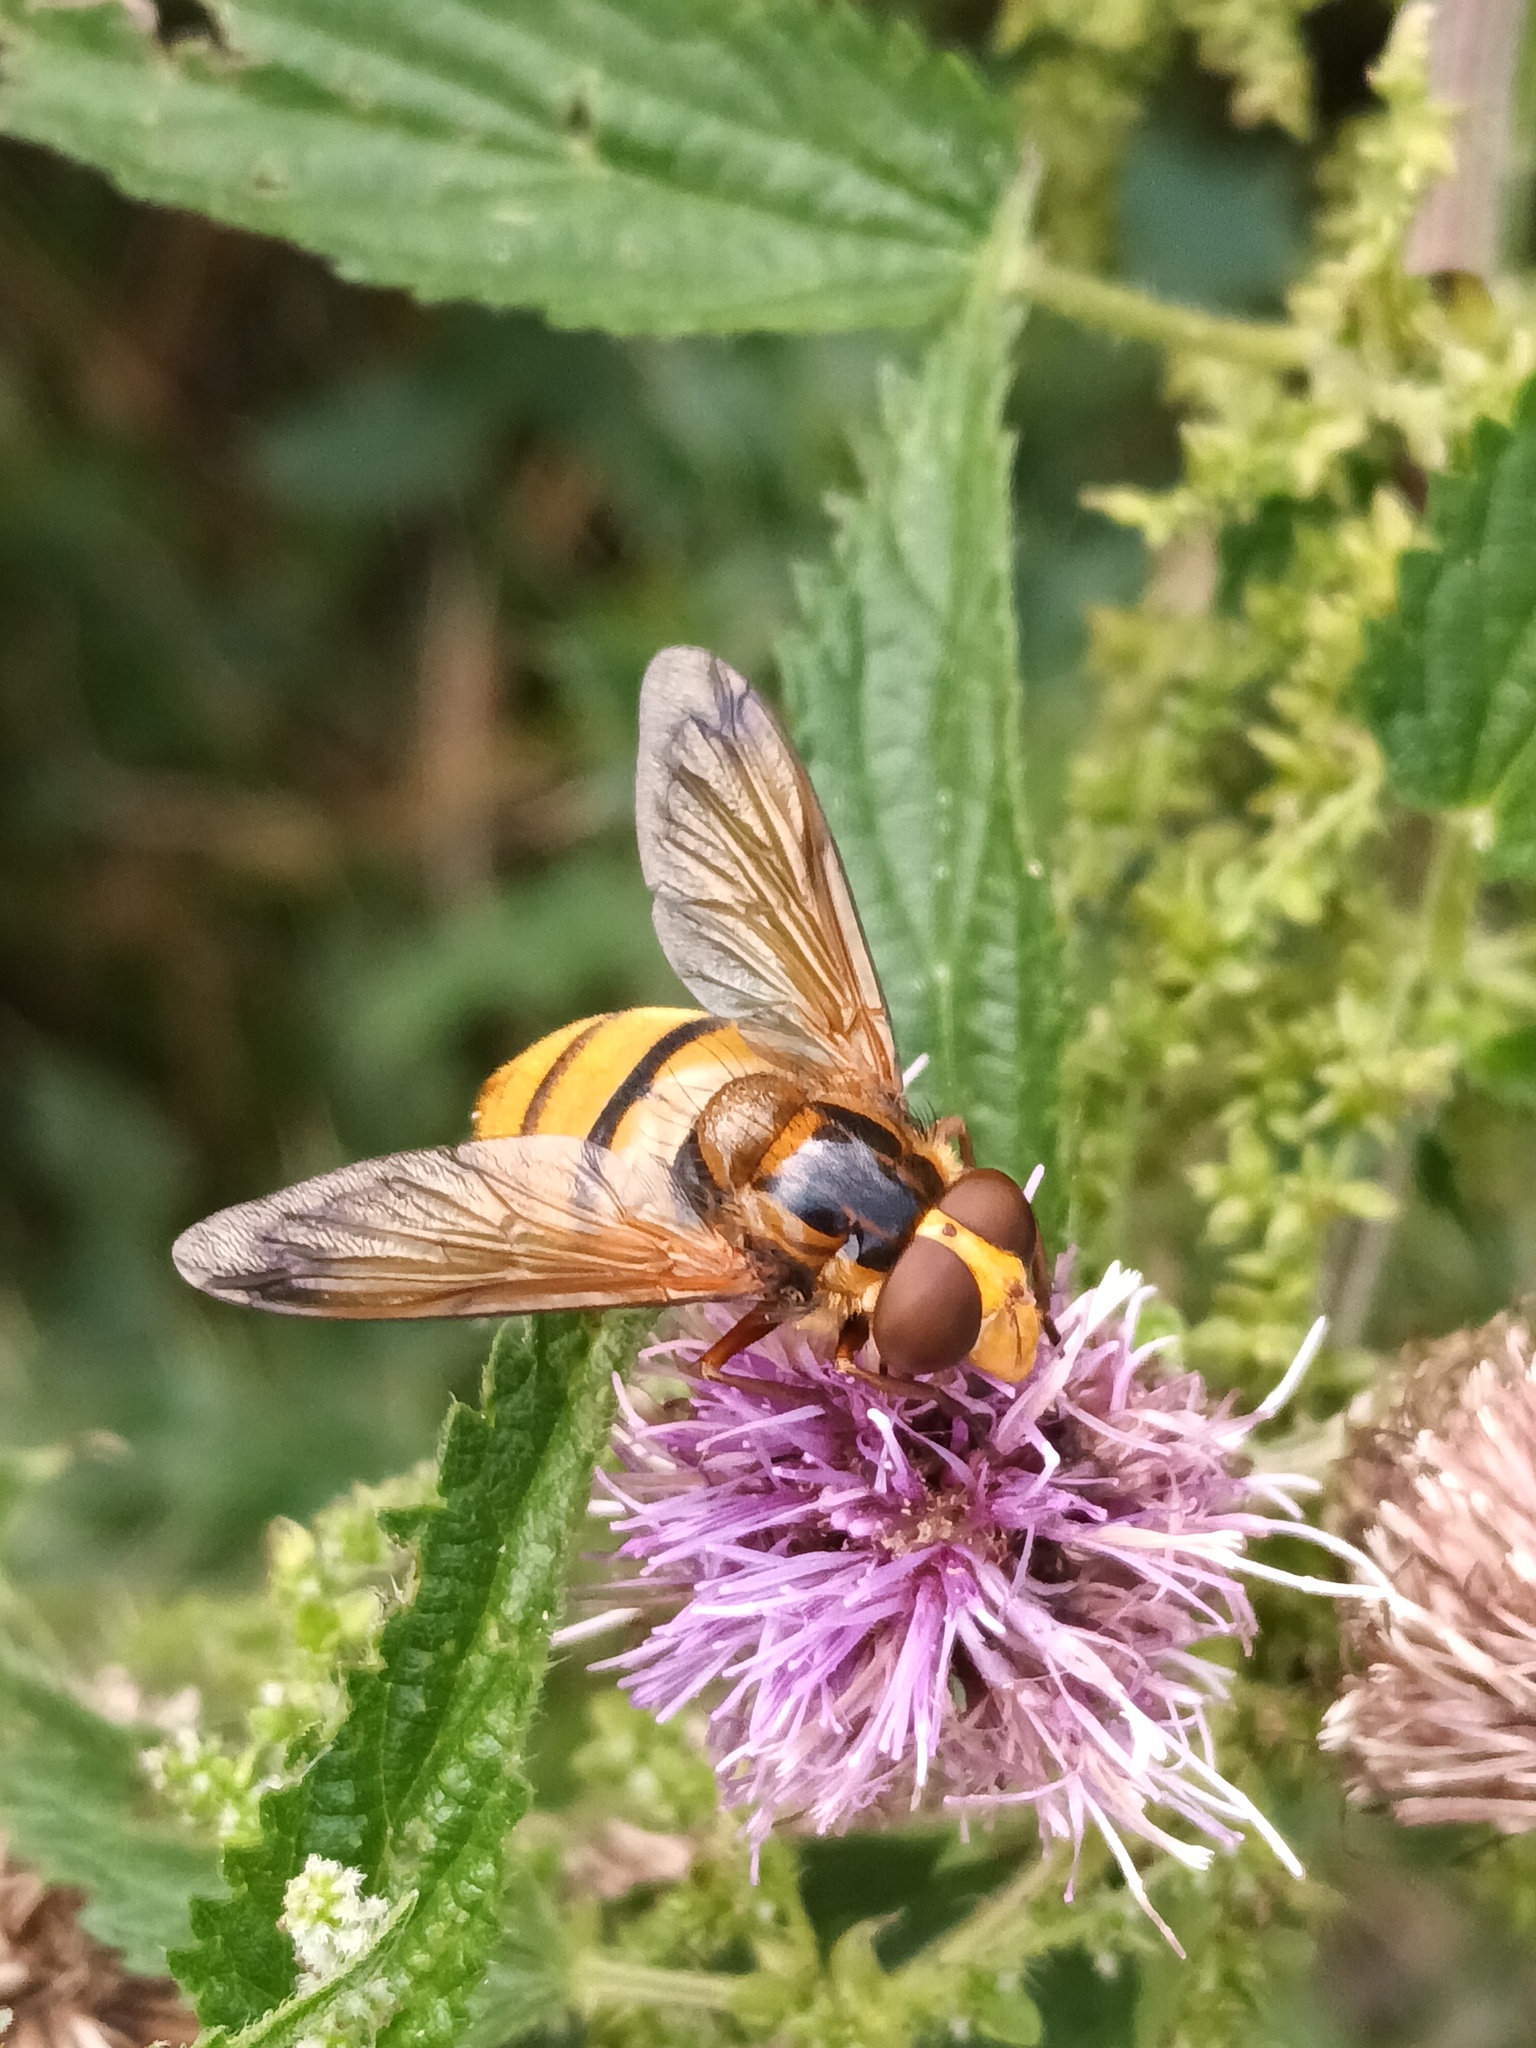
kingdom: Animalia
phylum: Arthropoda
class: Insecta
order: Diptera
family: Syrphidae
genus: Volucella
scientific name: Volucella inanis
